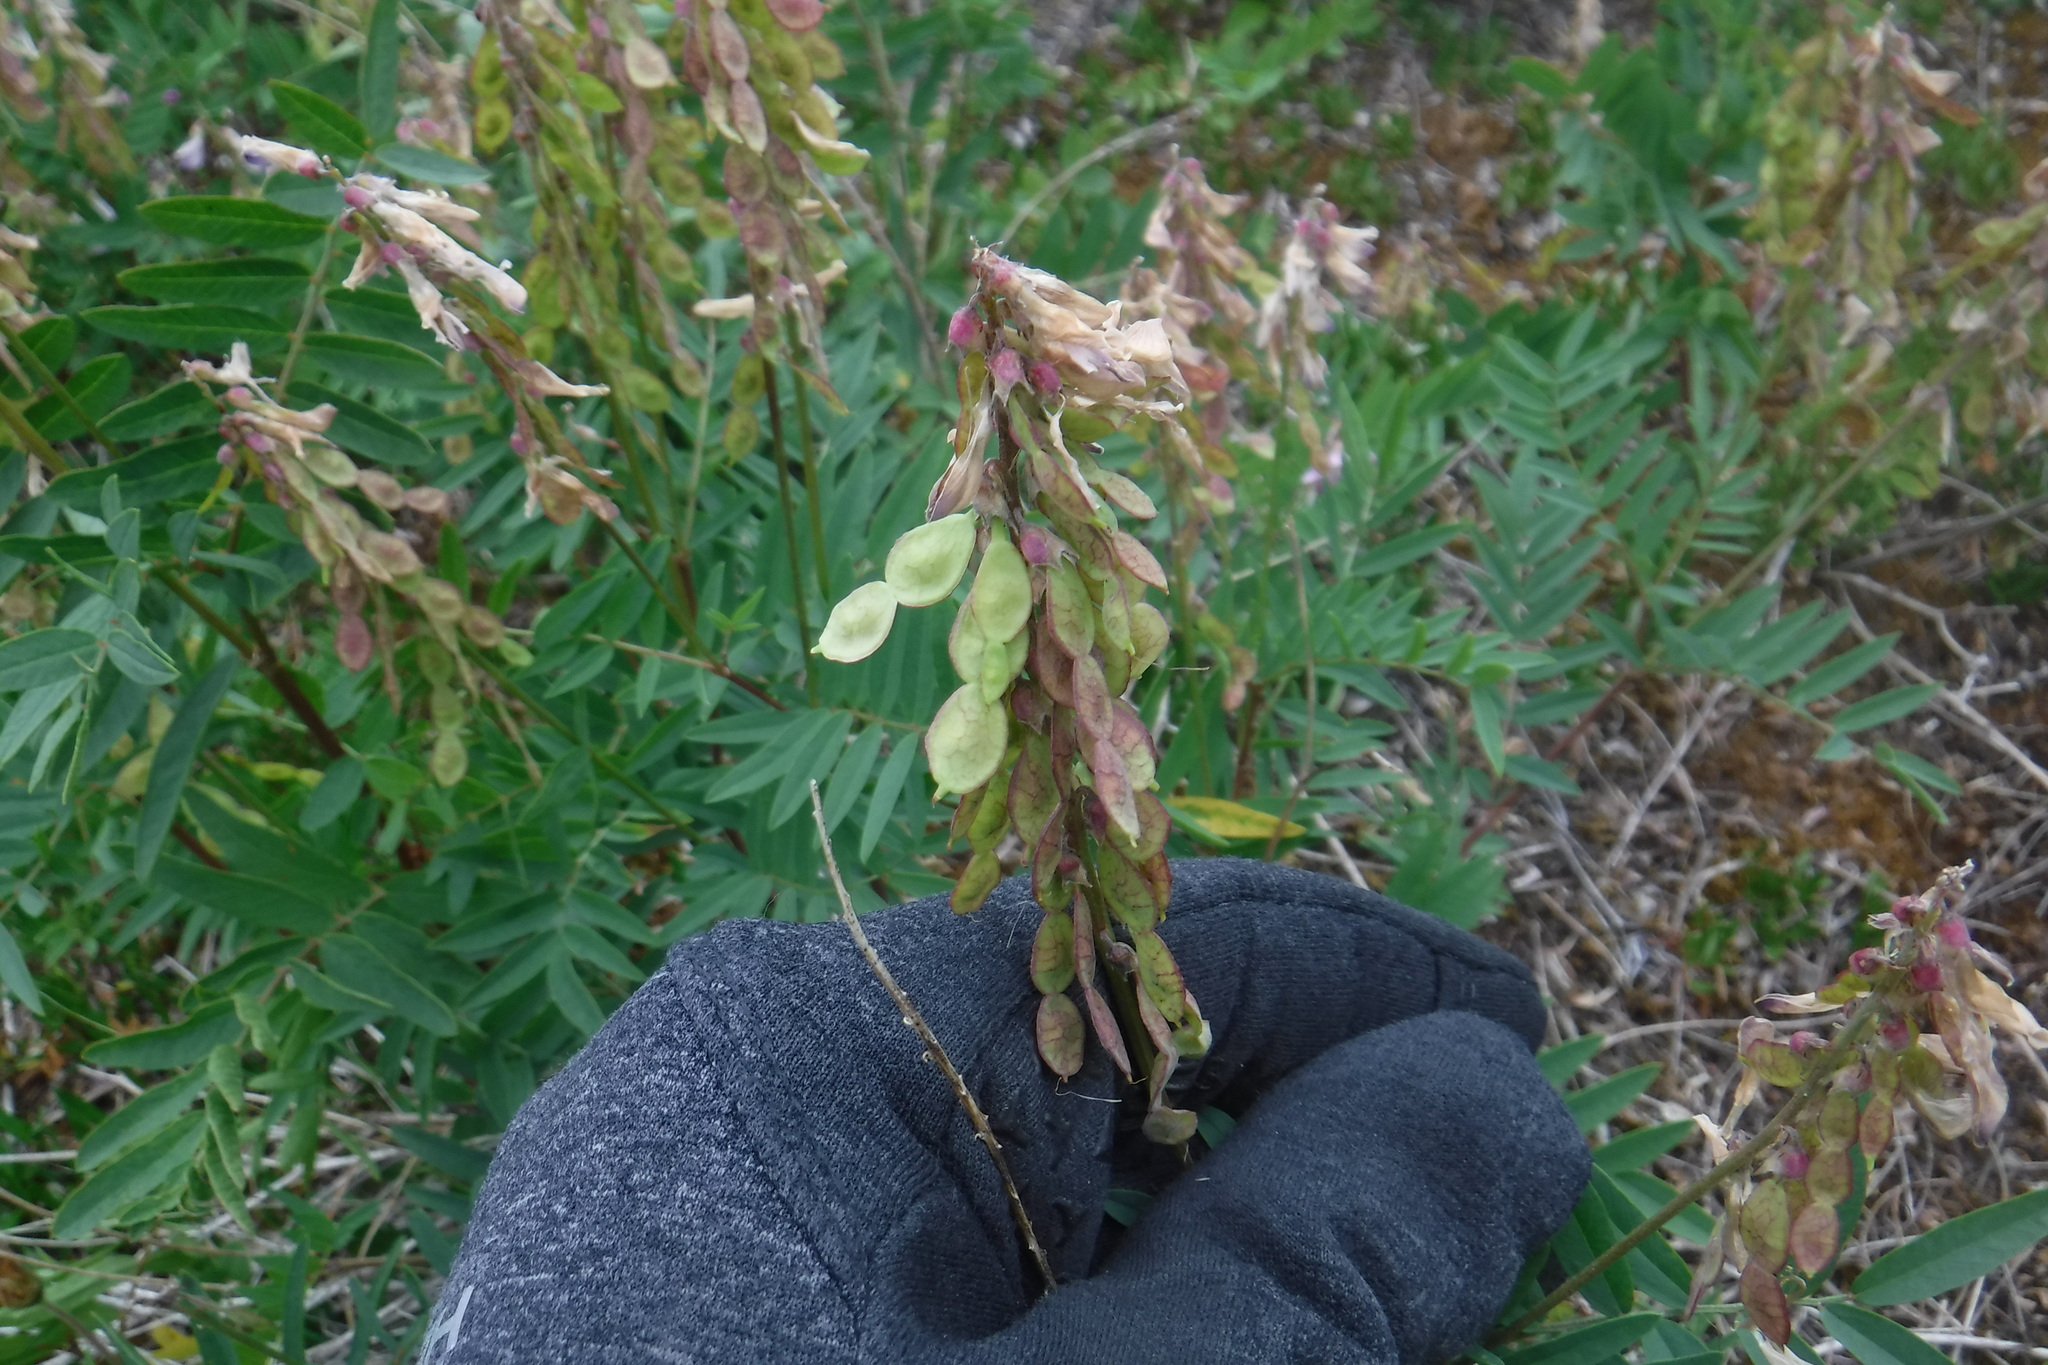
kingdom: Plantae
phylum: Tracheophyta
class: Magnoliopsida
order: Fabales
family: Fabaceae
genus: Hedysarum
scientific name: Hedysarum alpinum
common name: Alpine sweet-vetch
